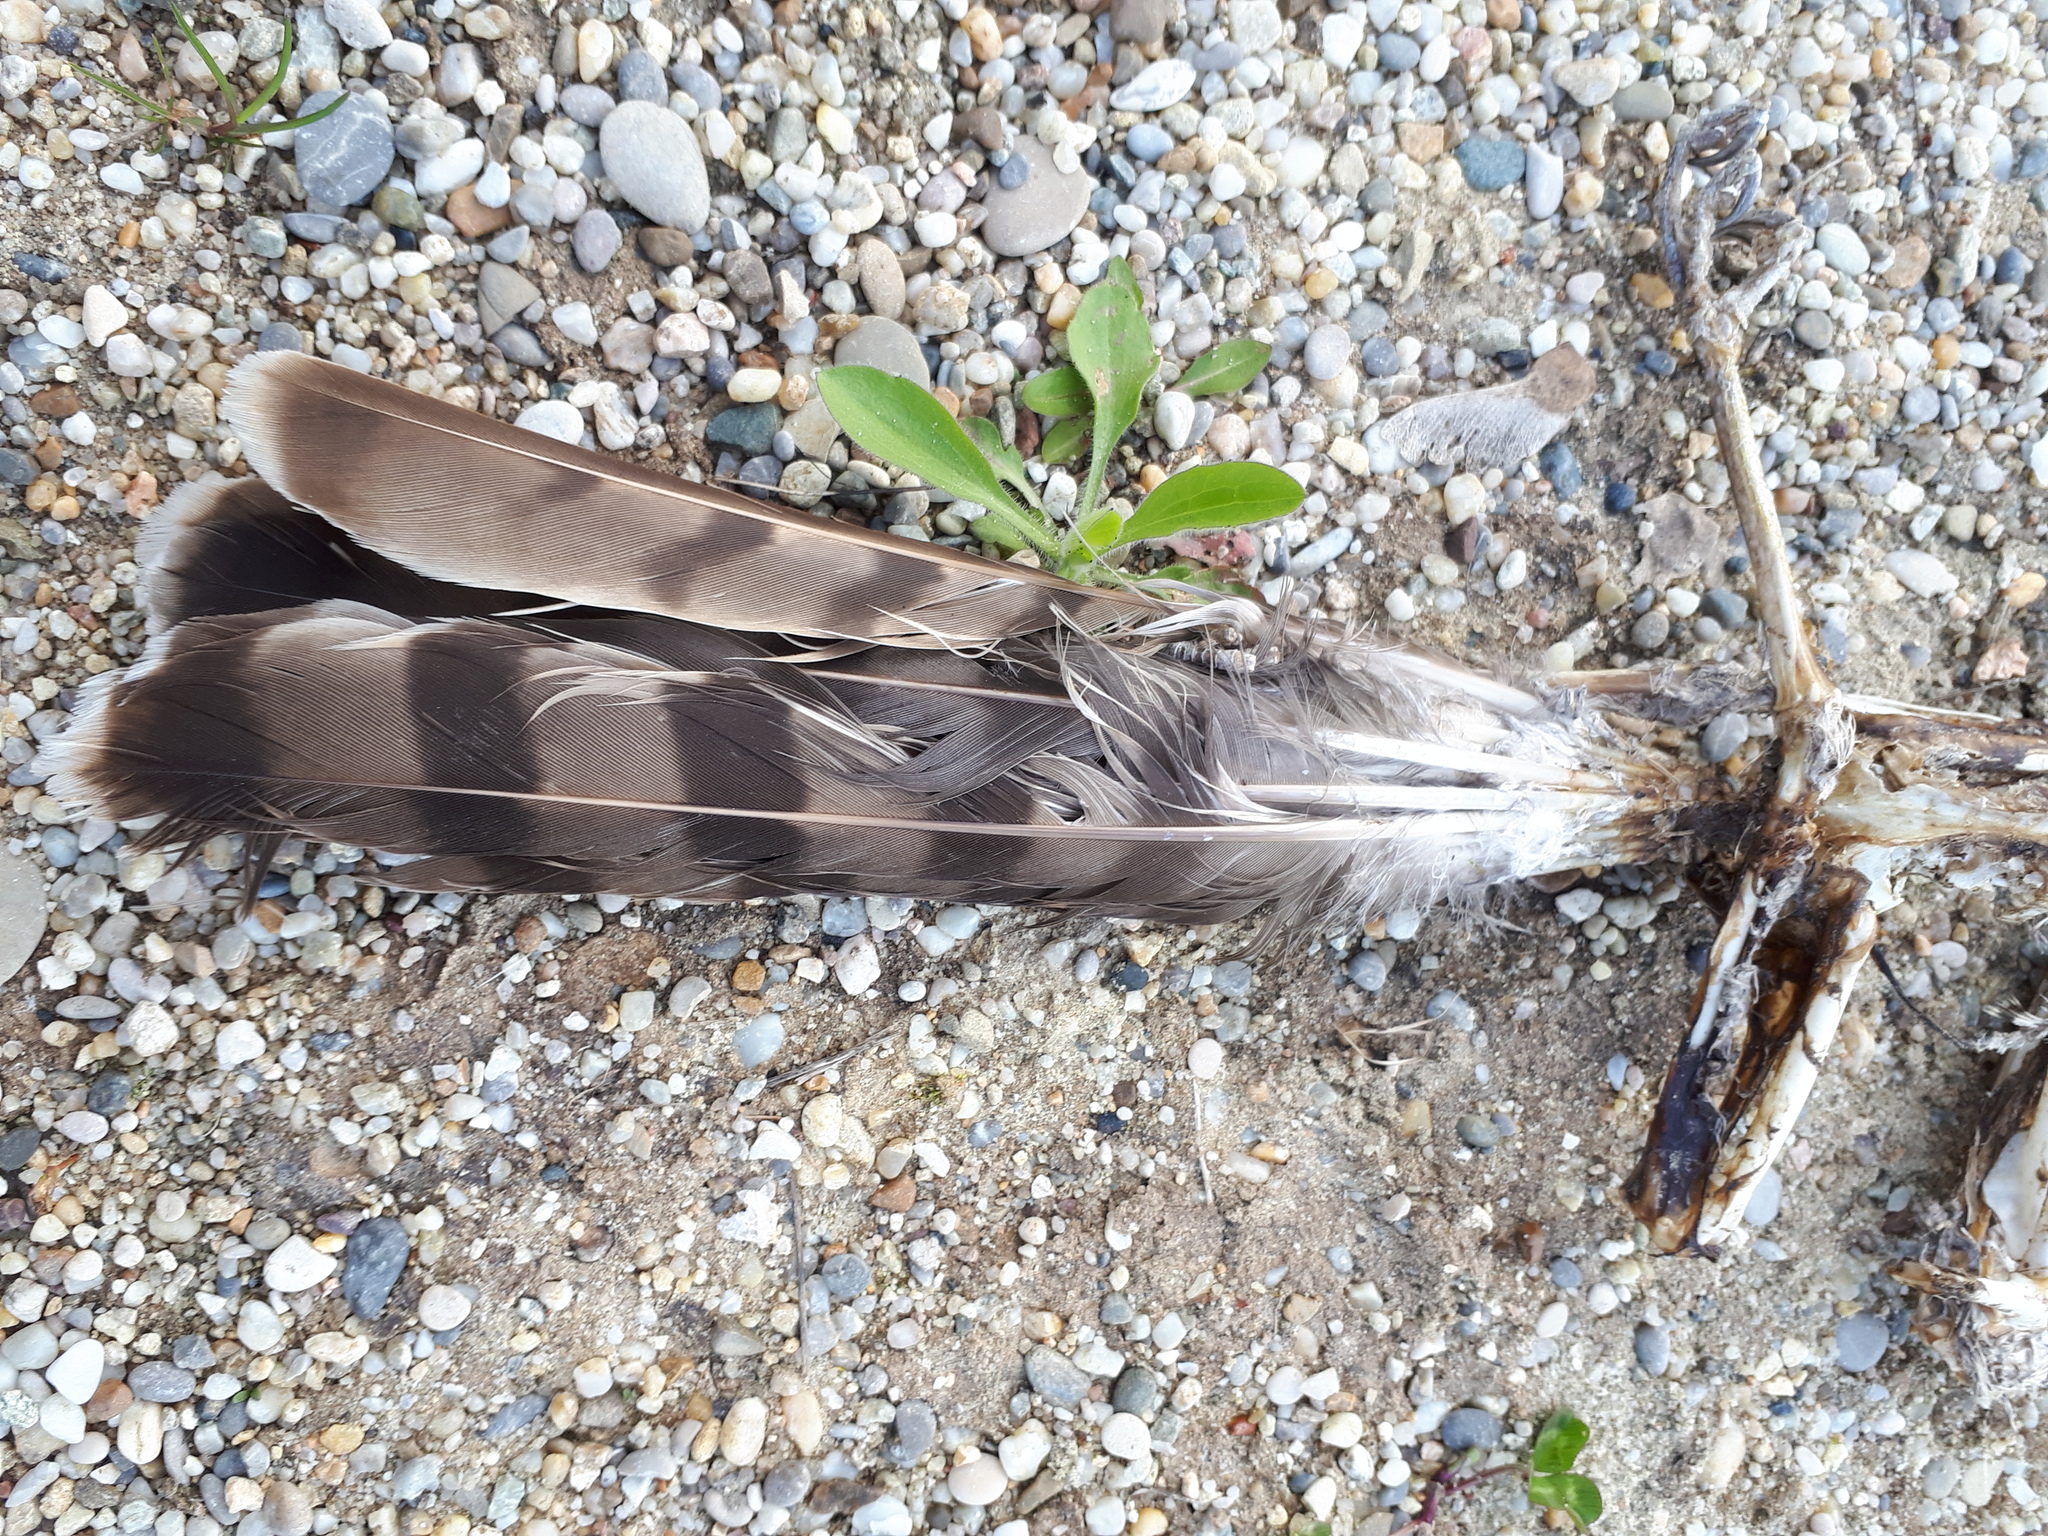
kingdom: Animalia
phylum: Chordata
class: Aves
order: Accipitriformes
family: Accipitridae
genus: Accipiter
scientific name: Accipiter nisus
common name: Eurasian sparrowhawk
